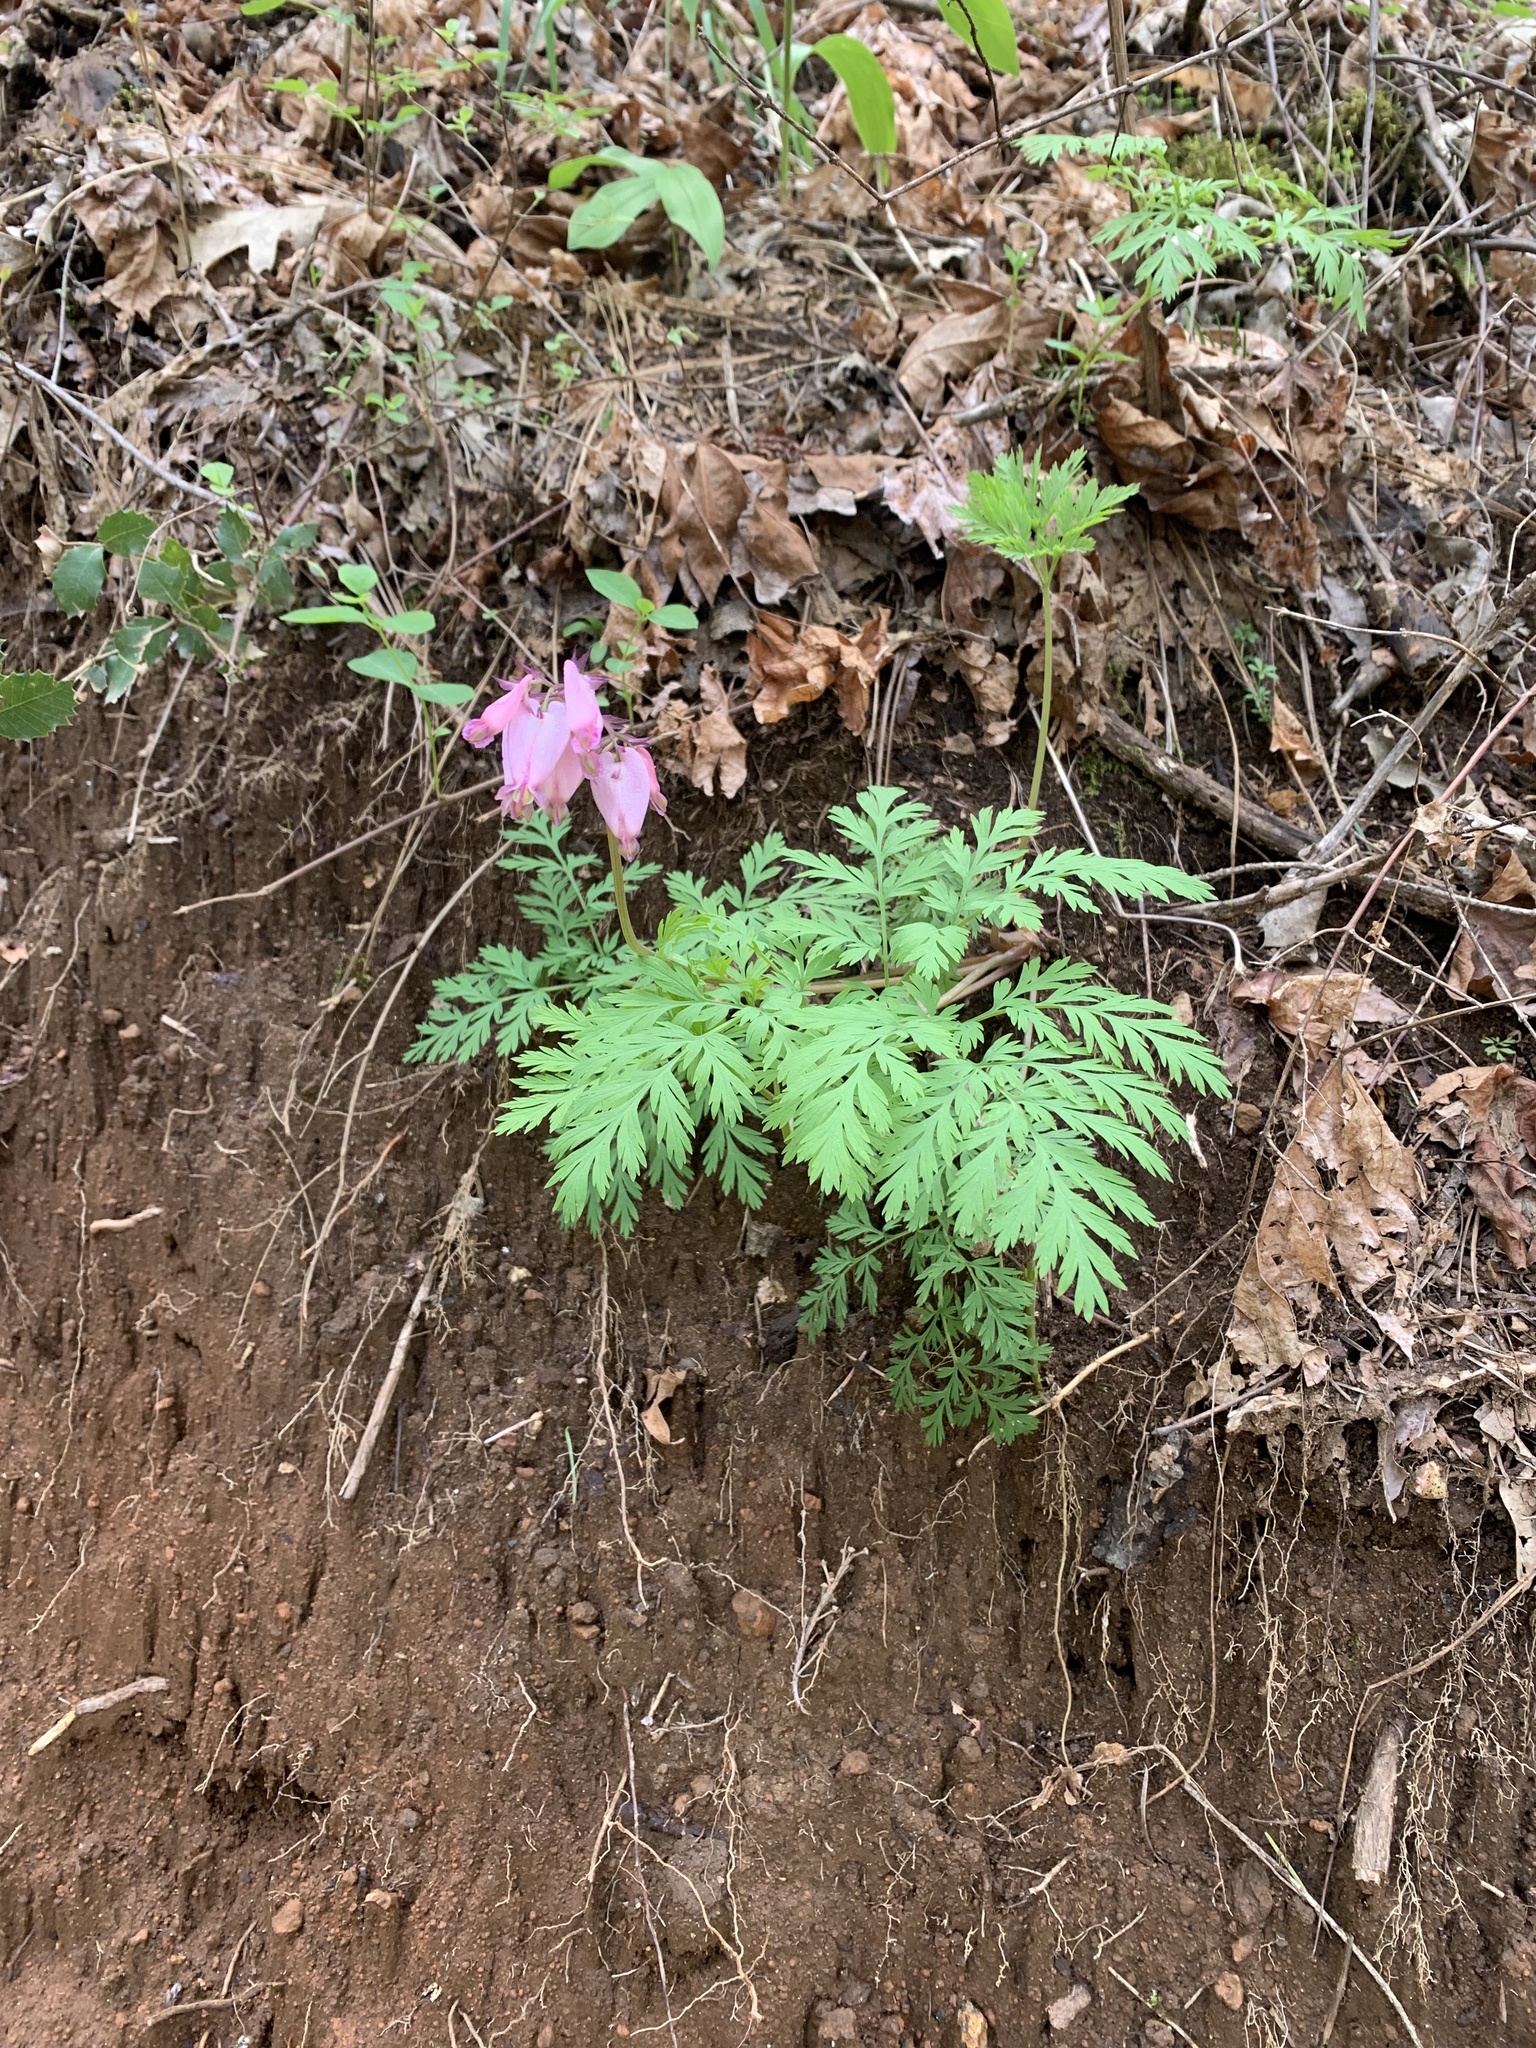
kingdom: Plantae
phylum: Tracheophyta
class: Magnoliopsida
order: Ranunculales
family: Papaveraceae
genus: Dicentra
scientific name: Dicentra formosa
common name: Bleeding-heart
